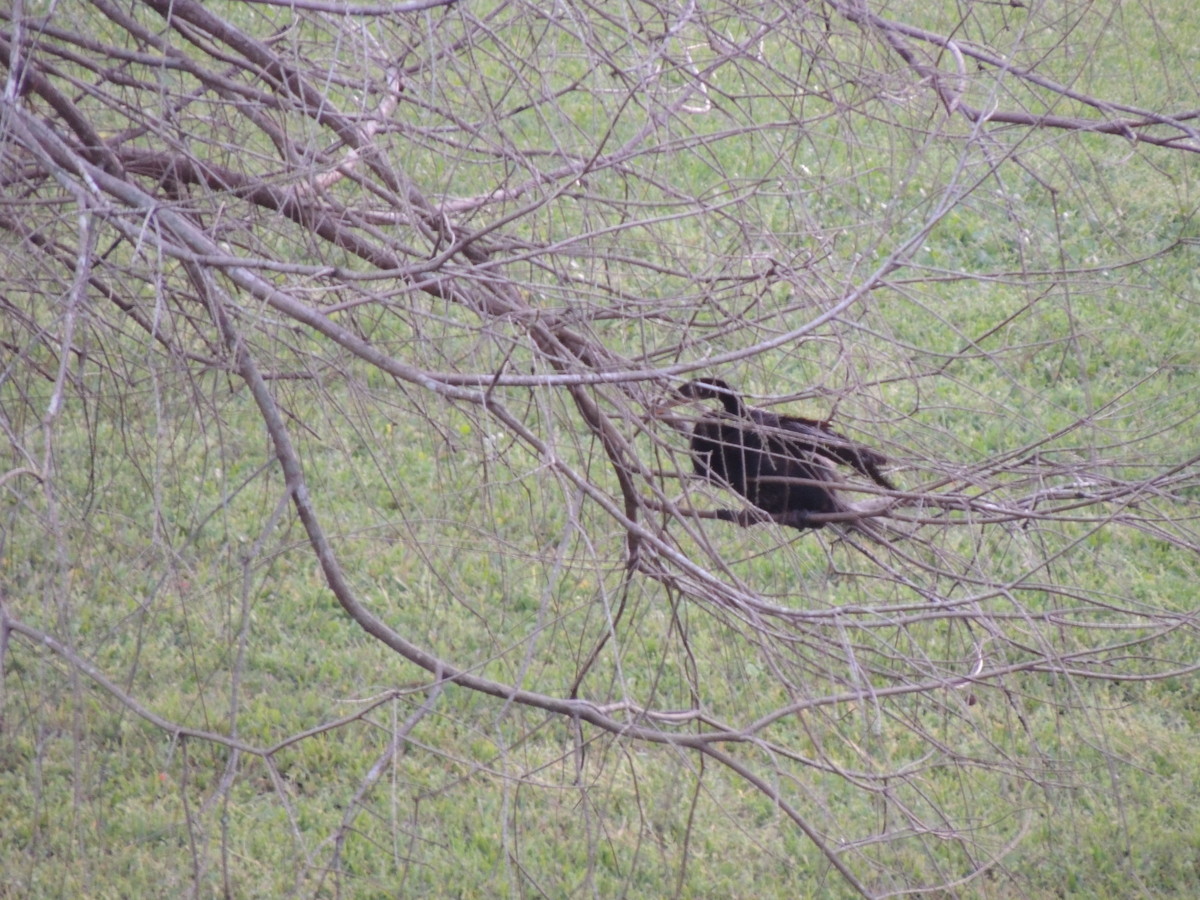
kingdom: Animalia
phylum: Chordata
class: Aves
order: Suliformes
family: Anhingidae
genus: Anhinga
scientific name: Anhinga anhinga
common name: Anhinga
